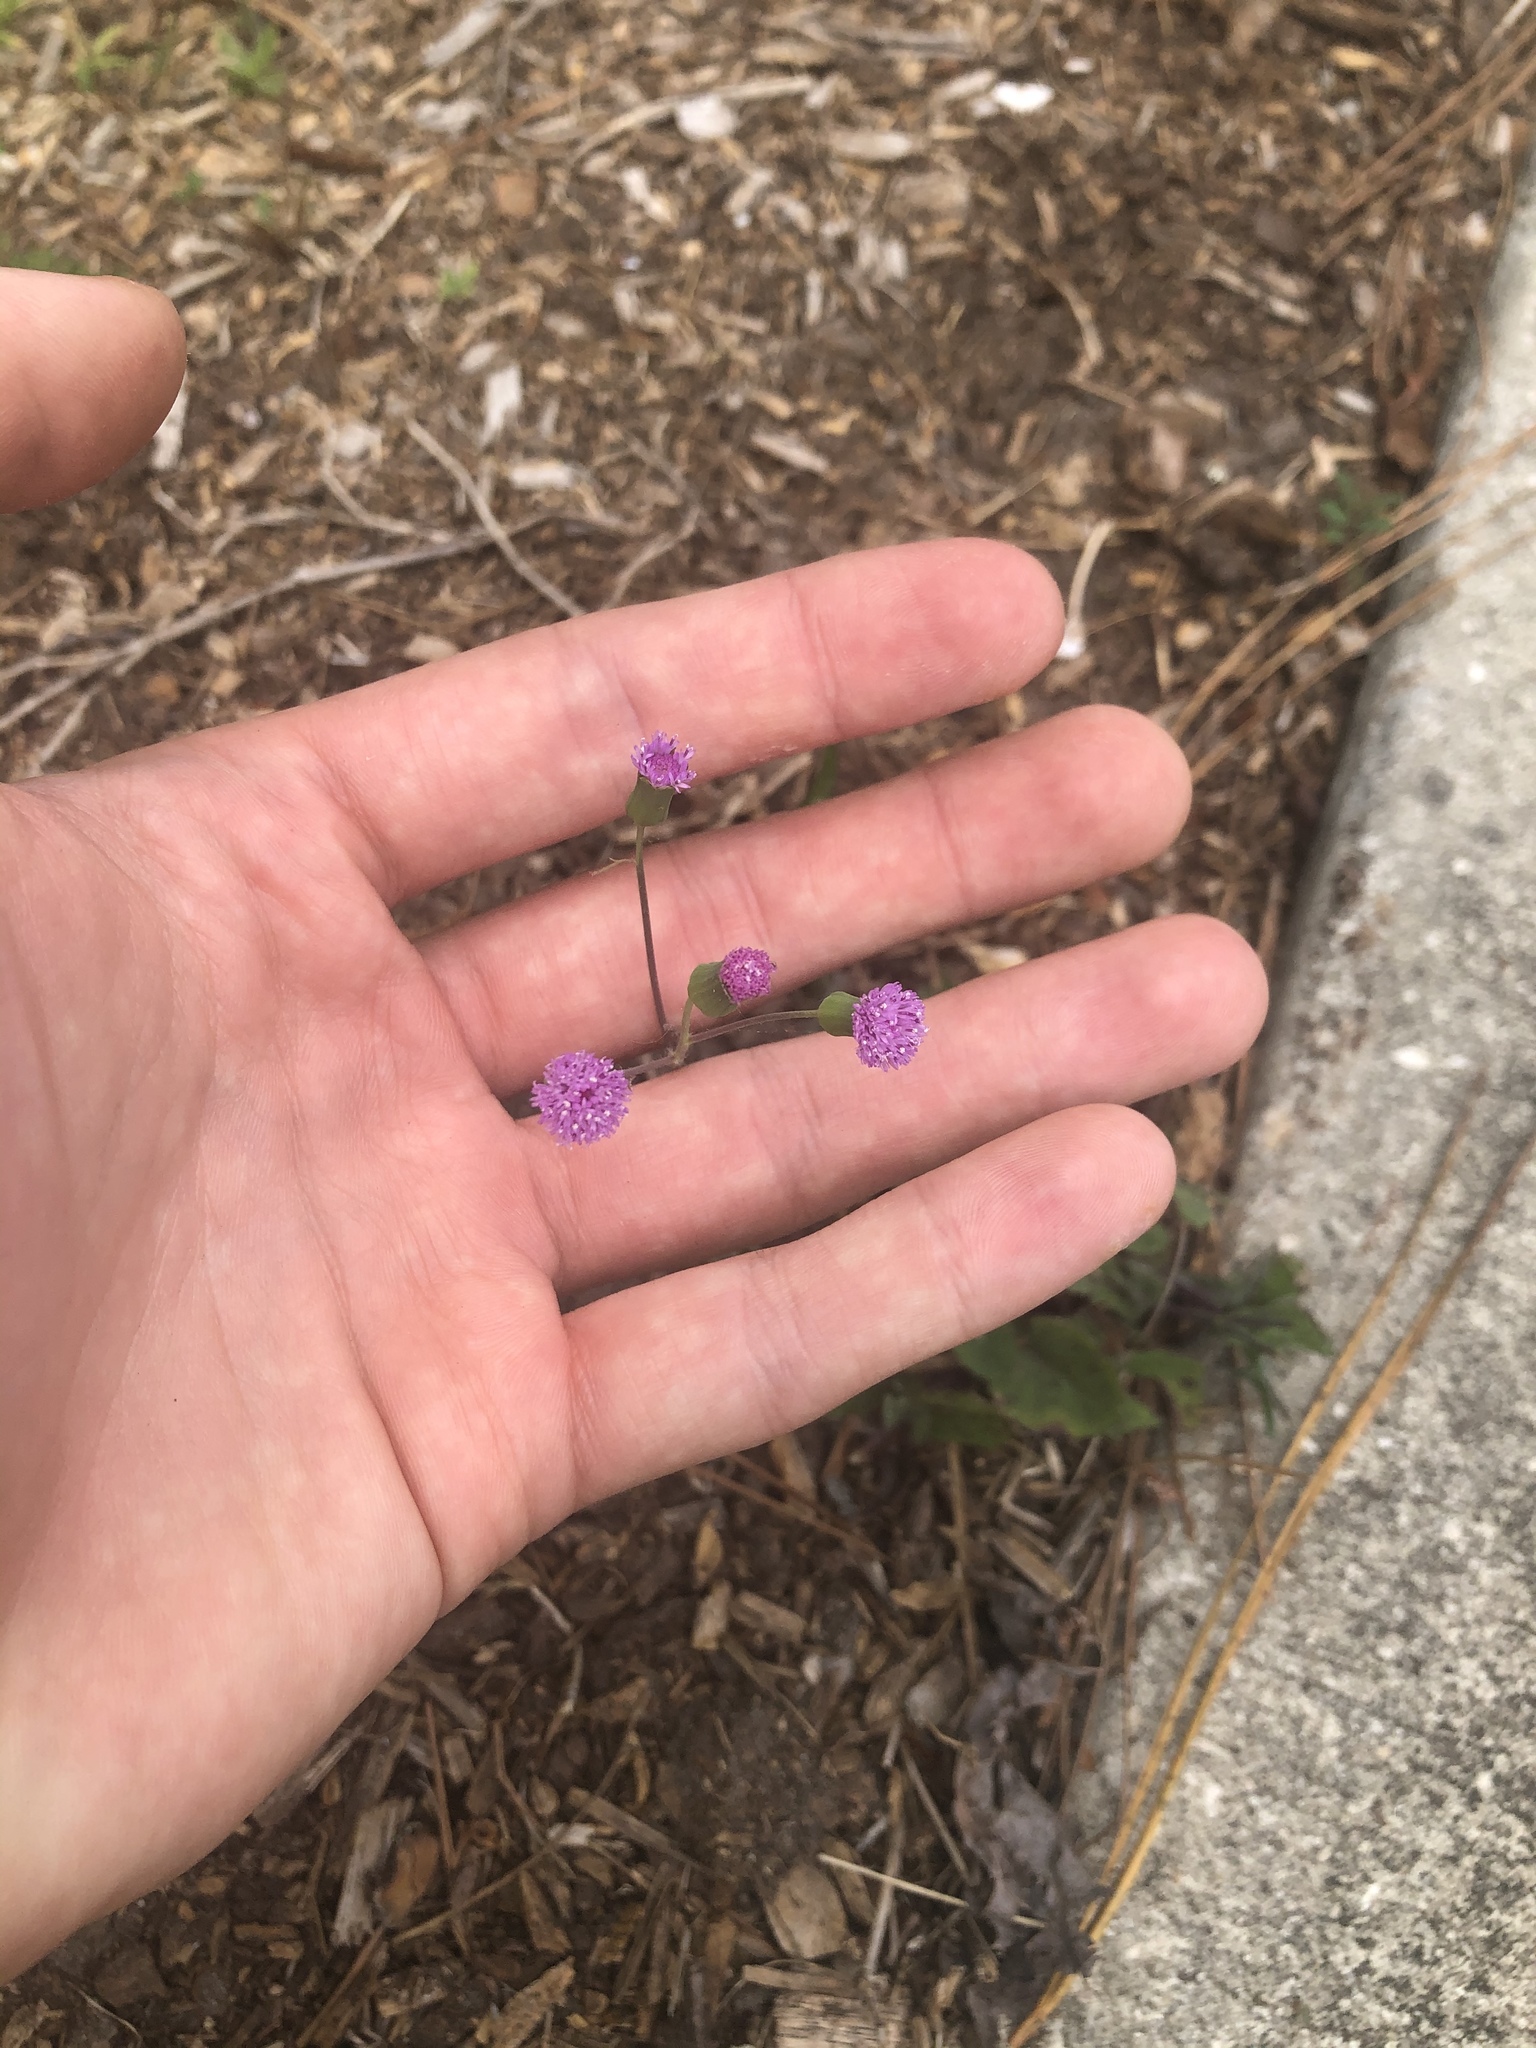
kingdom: Plantae
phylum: Tracheophyta
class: Magnoliopsida
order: Asterales
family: Asteraceae
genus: Emilia
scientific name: Emilia sonchifolia
